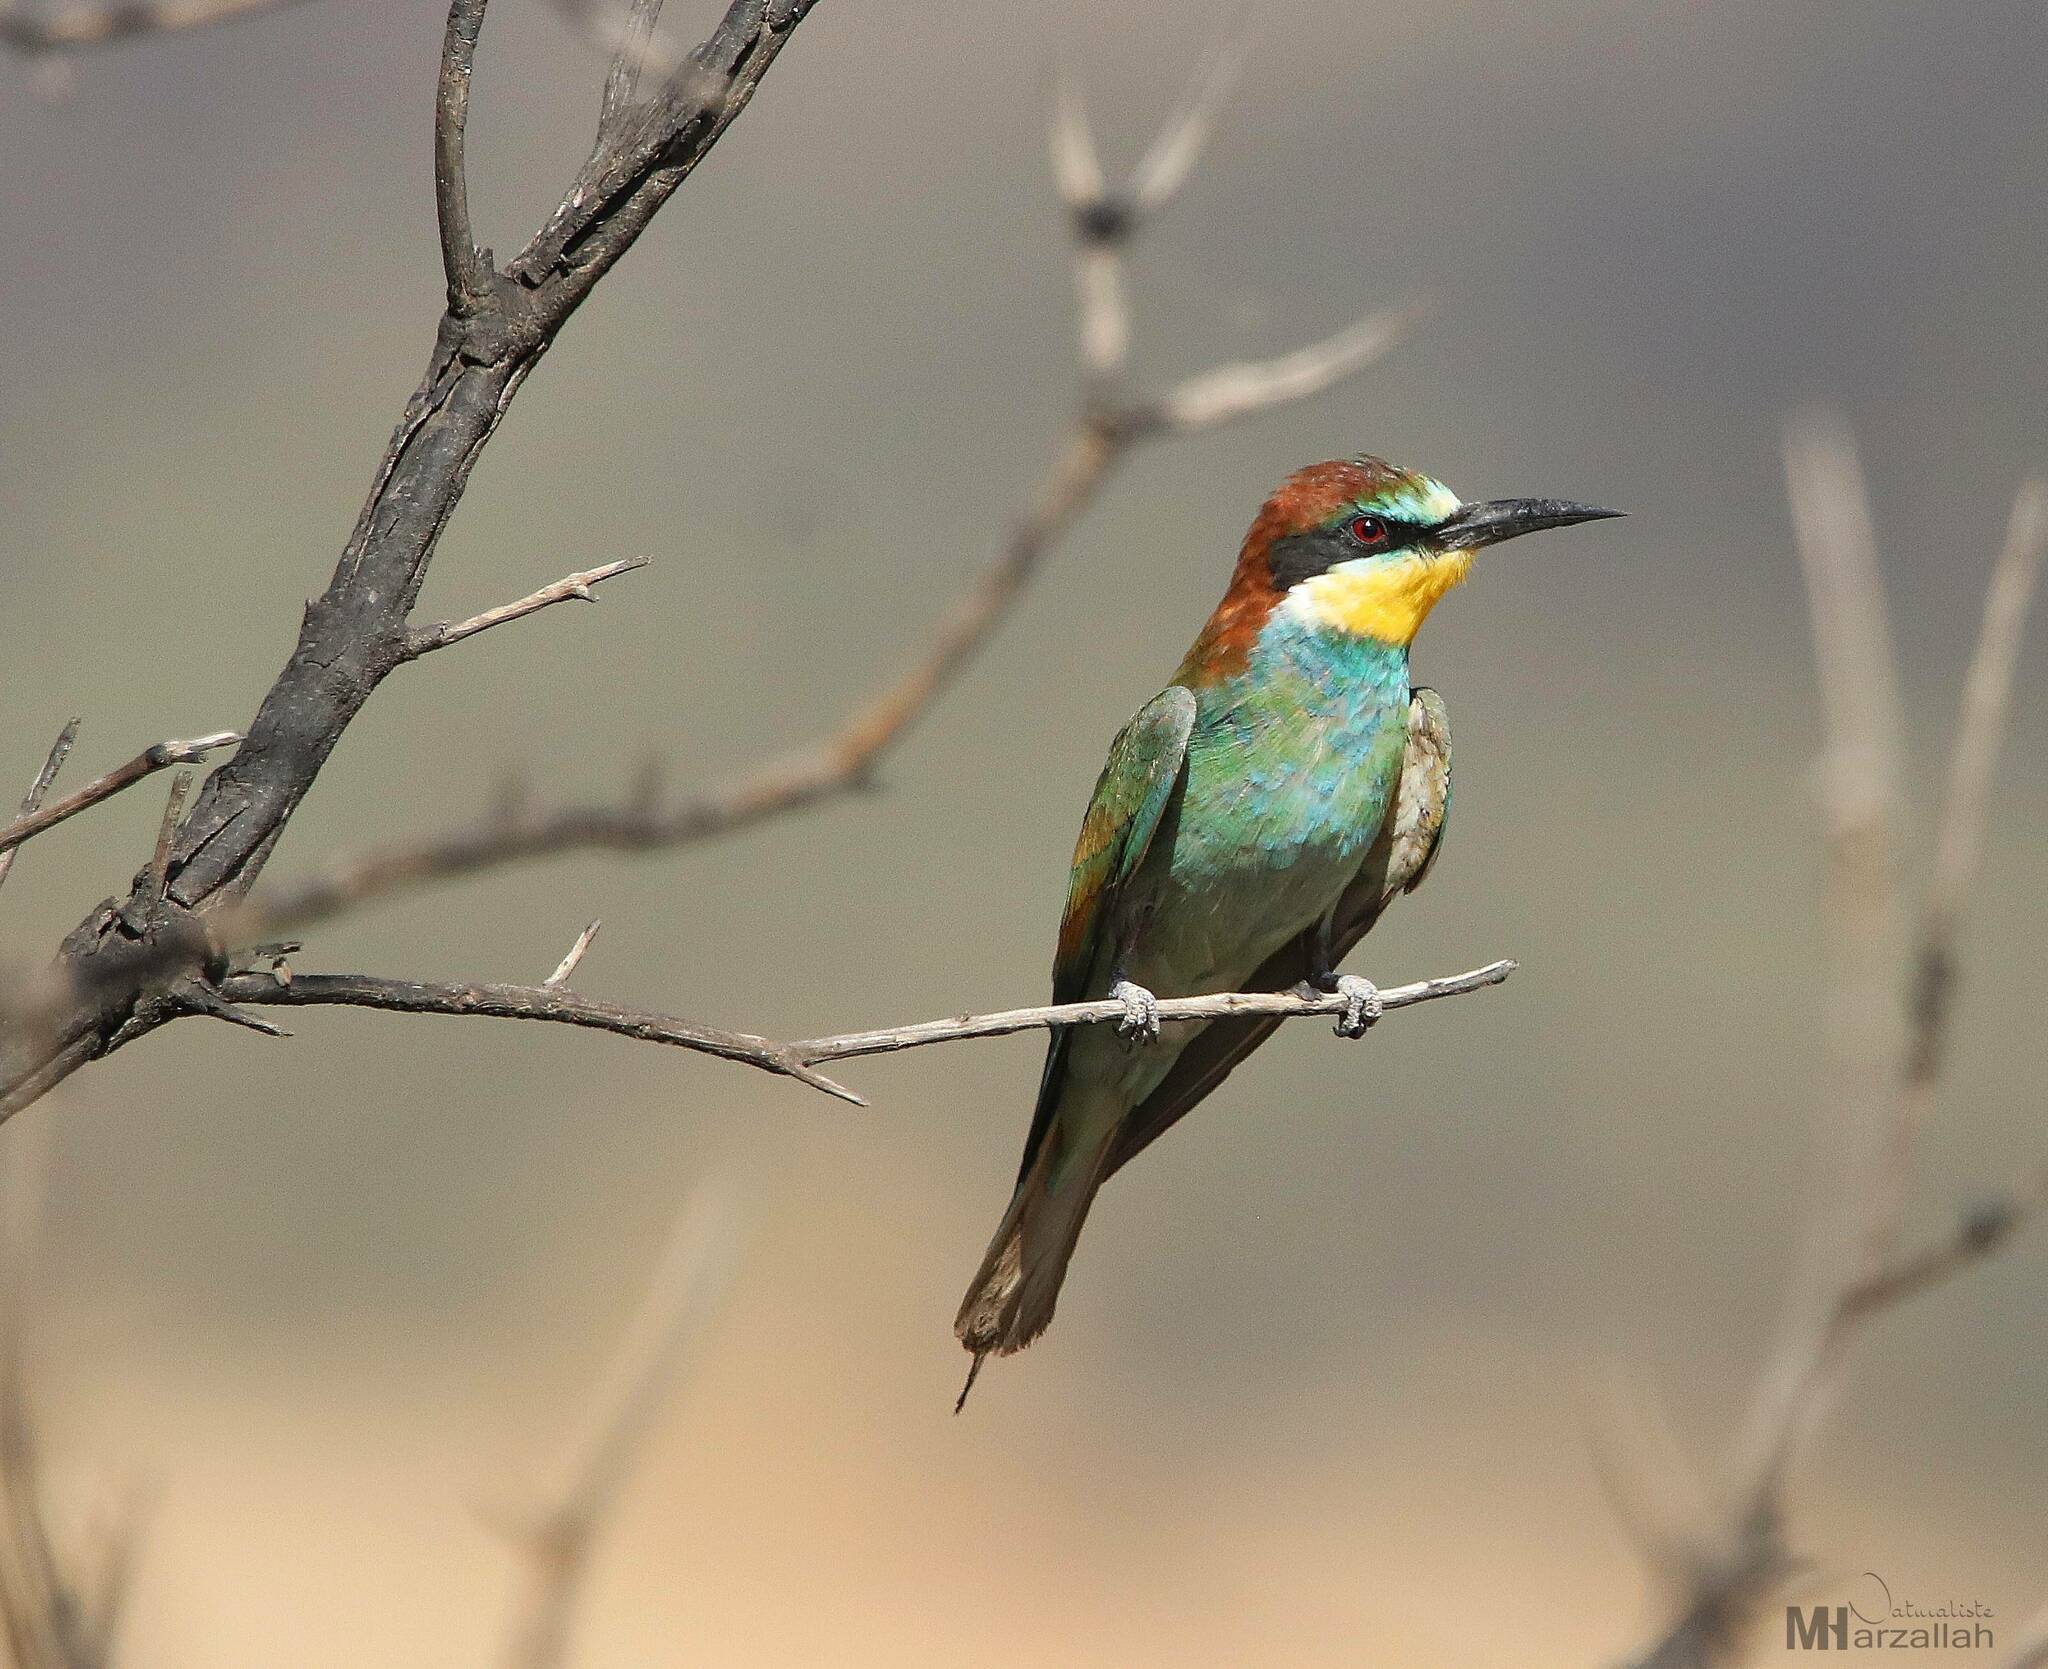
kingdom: Animalia
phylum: Chordata
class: Aves
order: Coraciiformes
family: Meropidae
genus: Merops
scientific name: Merops apiaster
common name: European bee-eater
